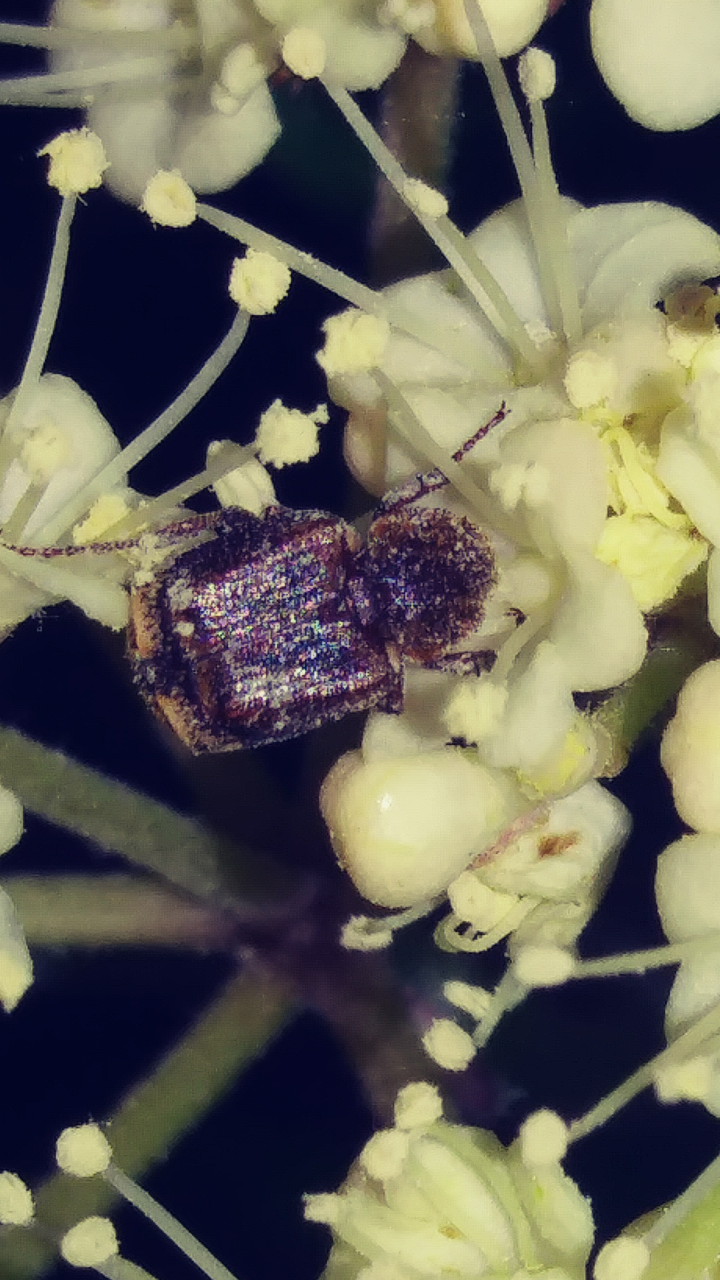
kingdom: Animalia
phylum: Arthropoda
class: Insecta
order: Coleoptera
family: Scarabaeidae
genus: Valgus
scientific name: Valgus canaliculatus
